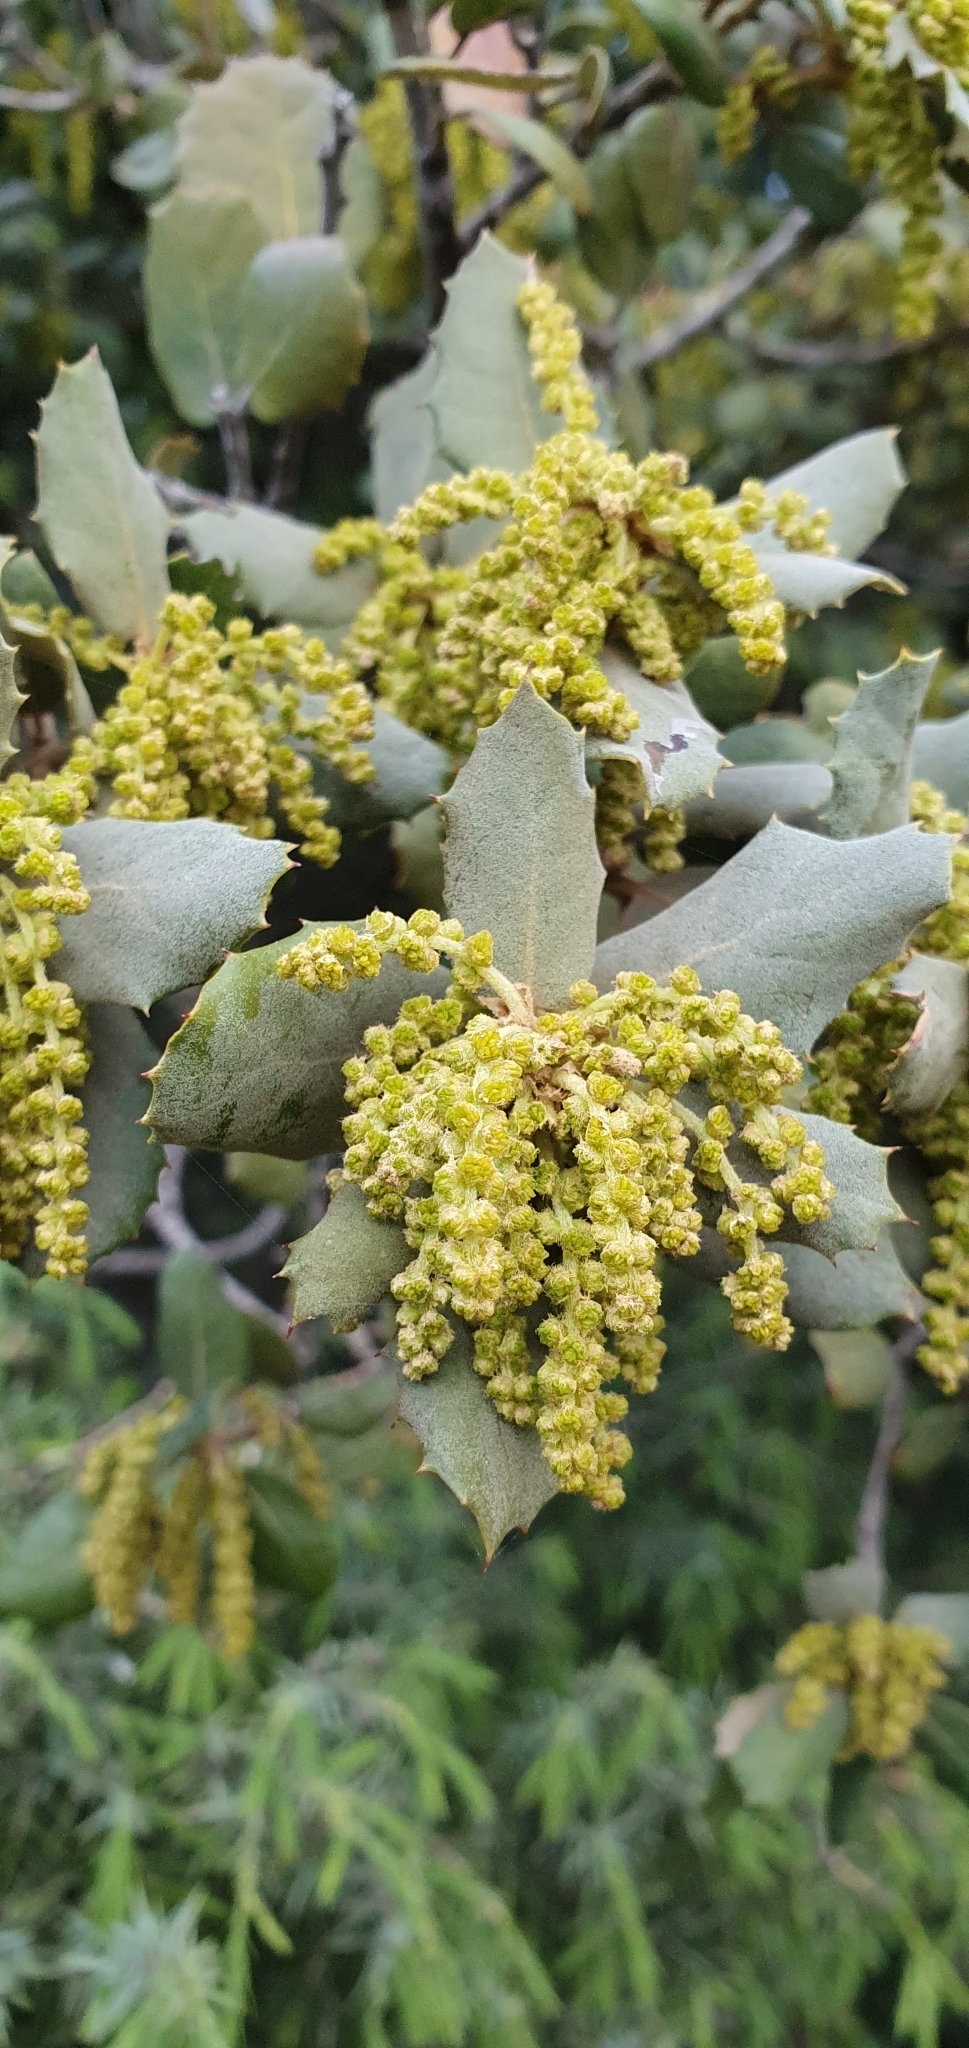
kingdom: Plantae
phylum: Tracheophyta
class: Magnoliopsida
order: Fagales
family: Fagaceae
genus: Quercus
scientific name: Quercus rotundifolia
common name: Holm oak
